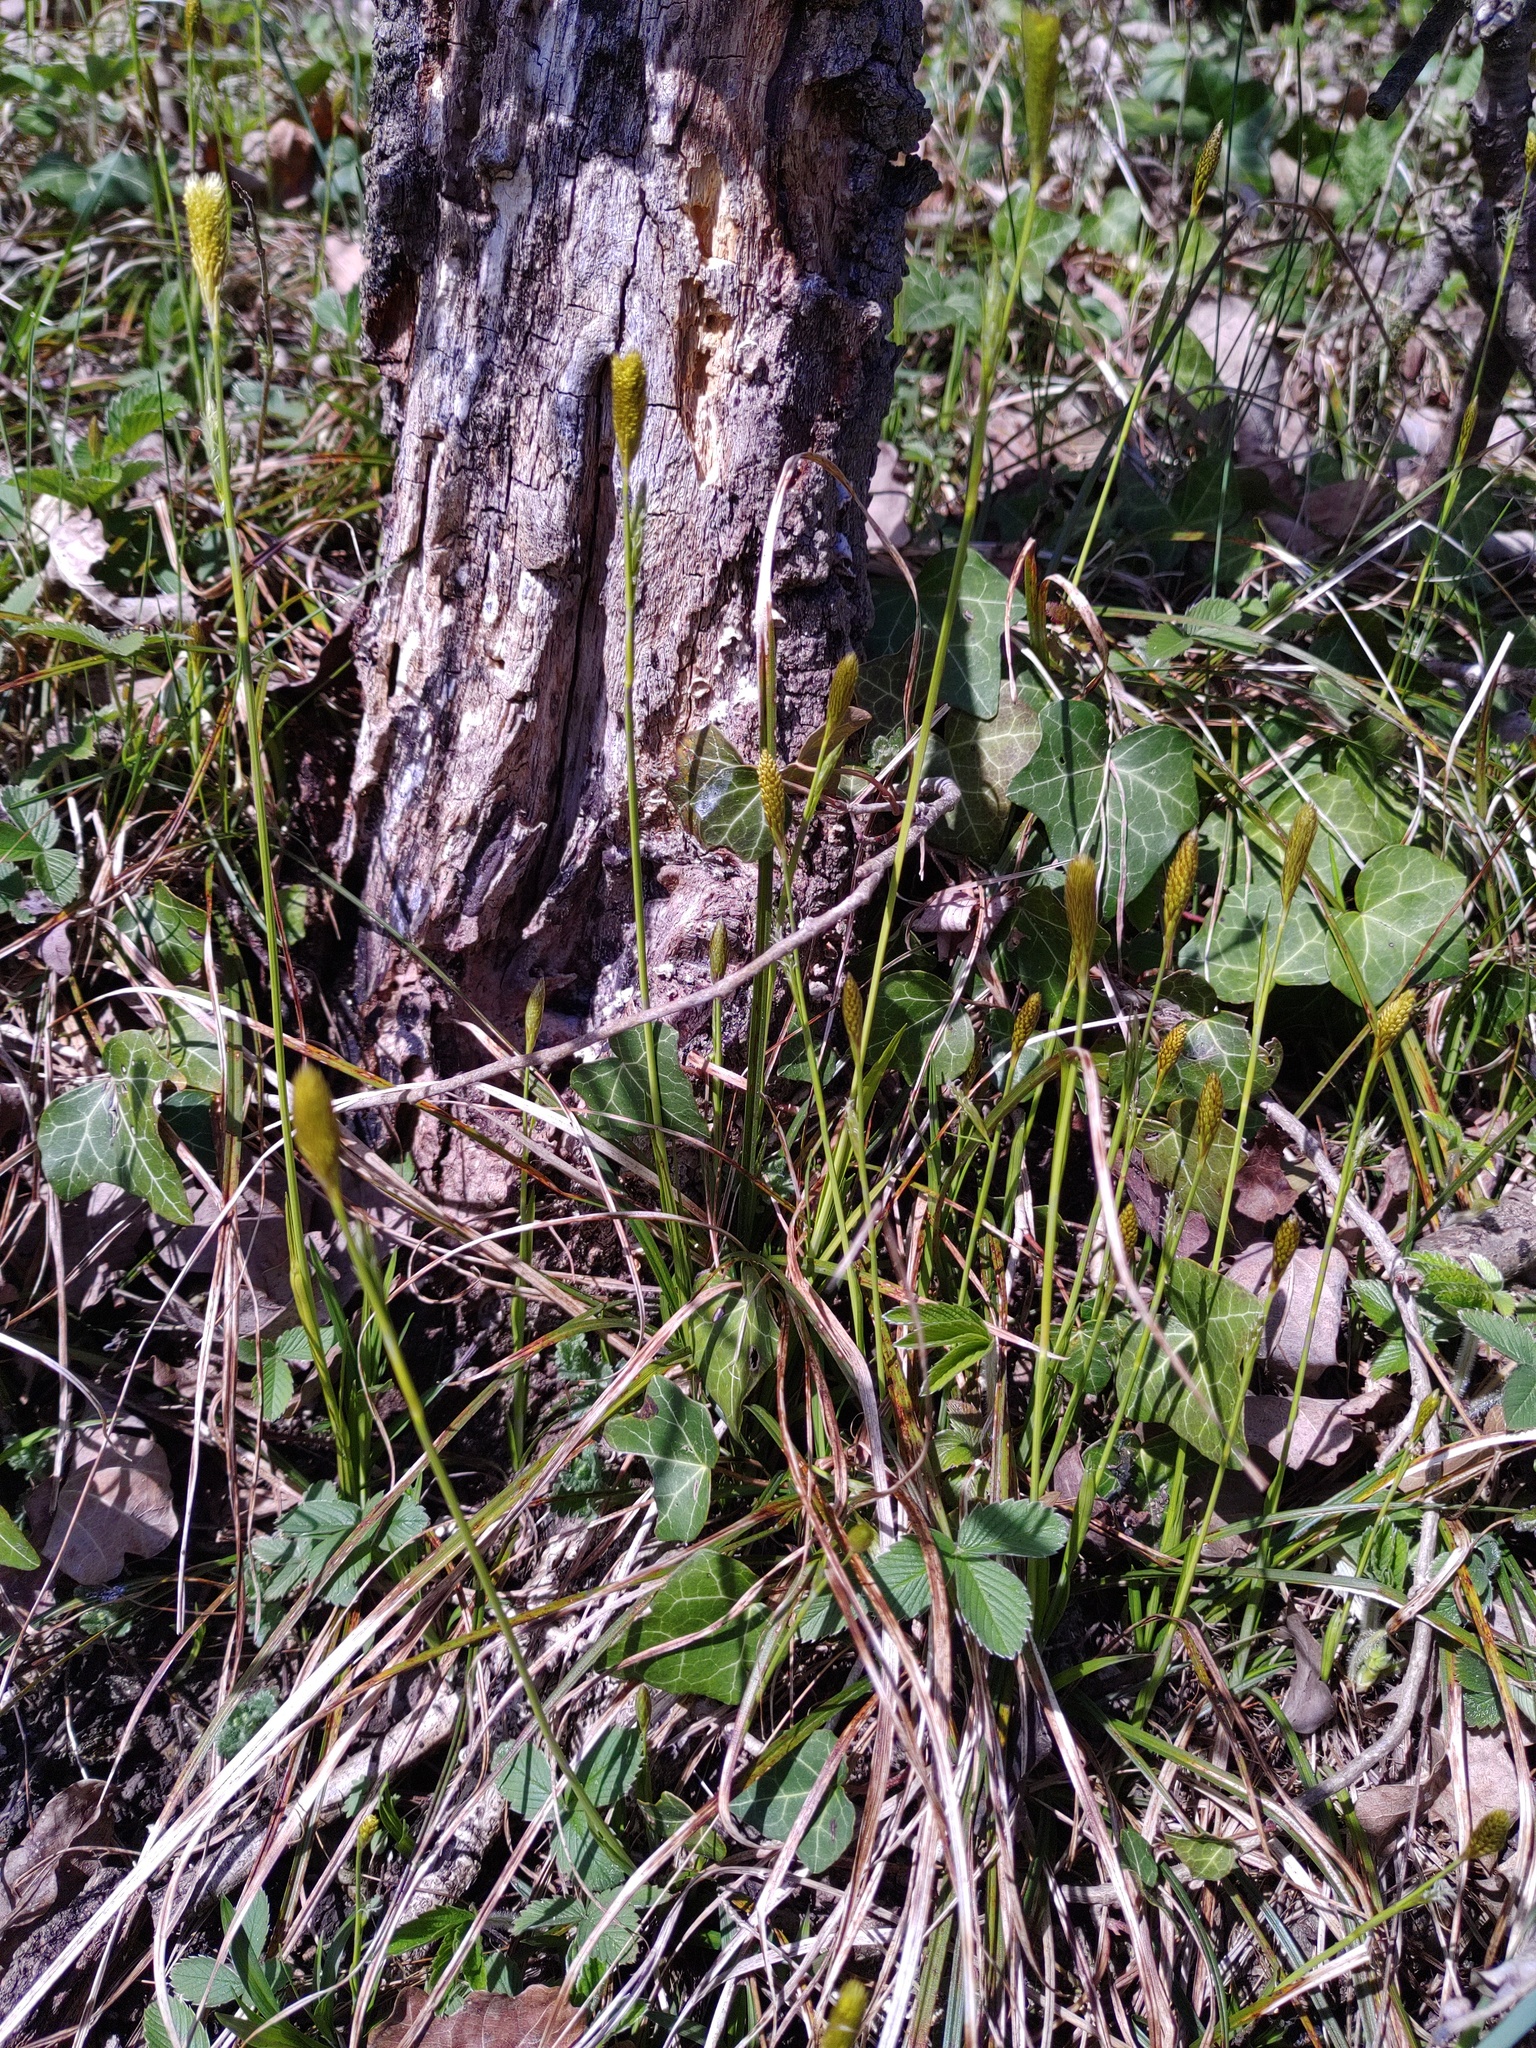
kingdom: Plantae
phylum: Tracheophyta
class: Liliopsida
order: Poales
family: Cyperaceae
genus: Carex
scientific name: Carex michelii
